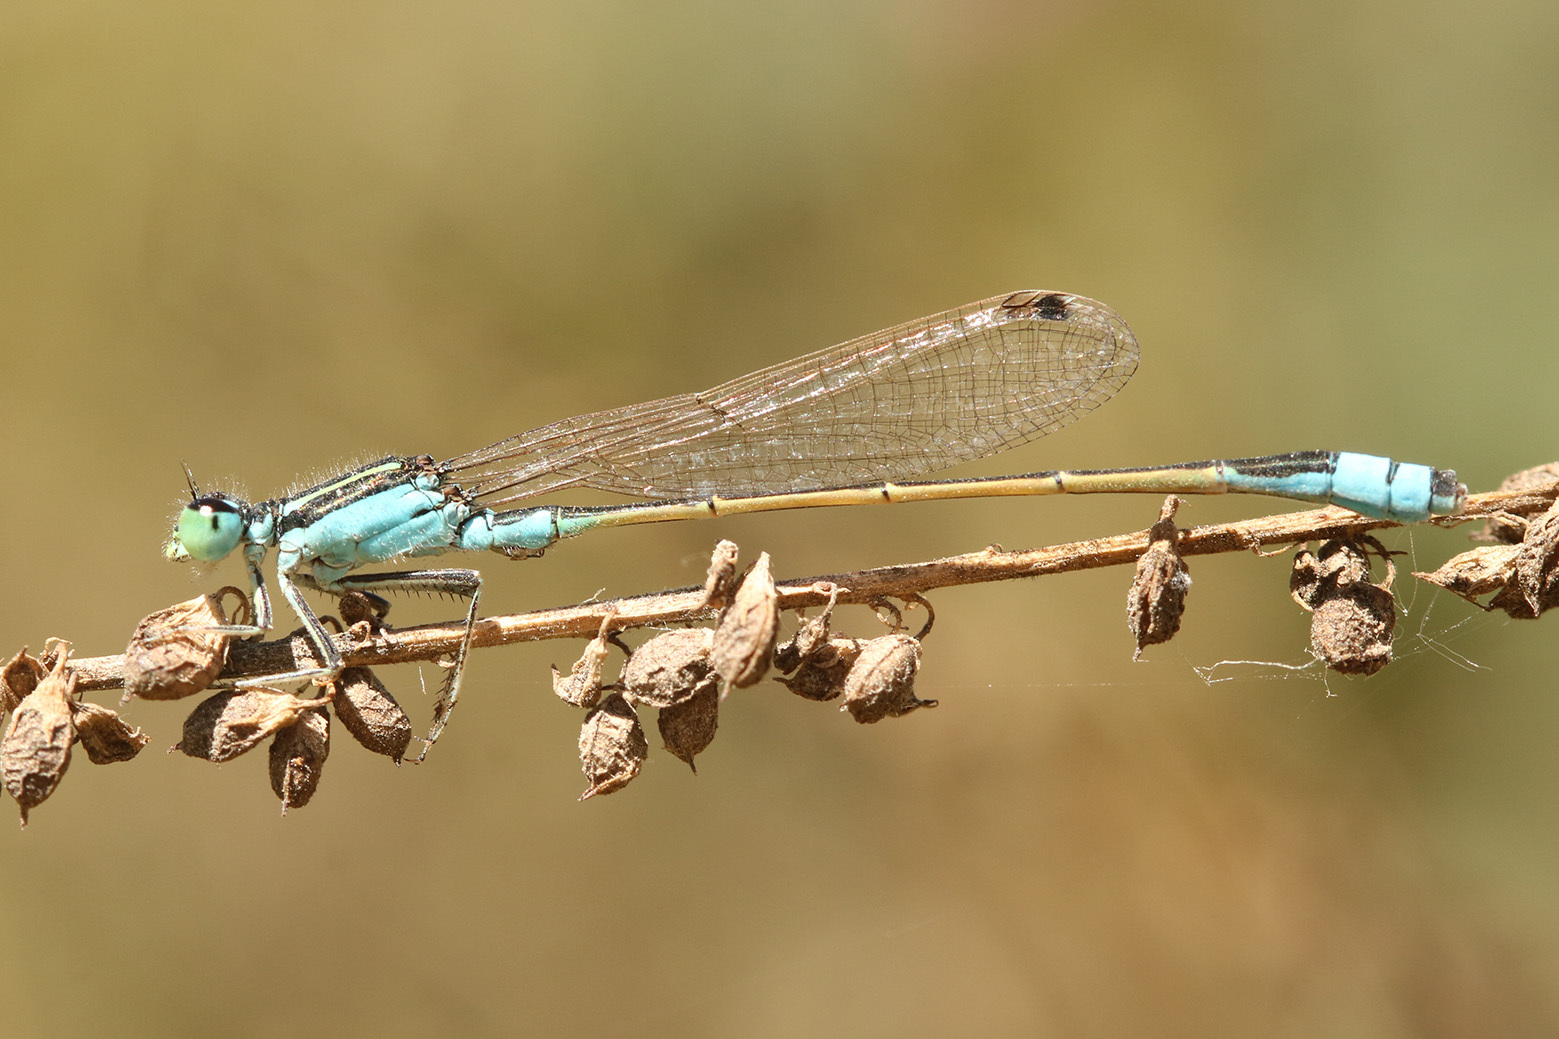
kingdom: Animalia
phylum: Arthropoda
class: Insecta
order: Odonata
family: Coenagrionidae
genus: Ischnura
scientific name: Ischnura fluviatilis
